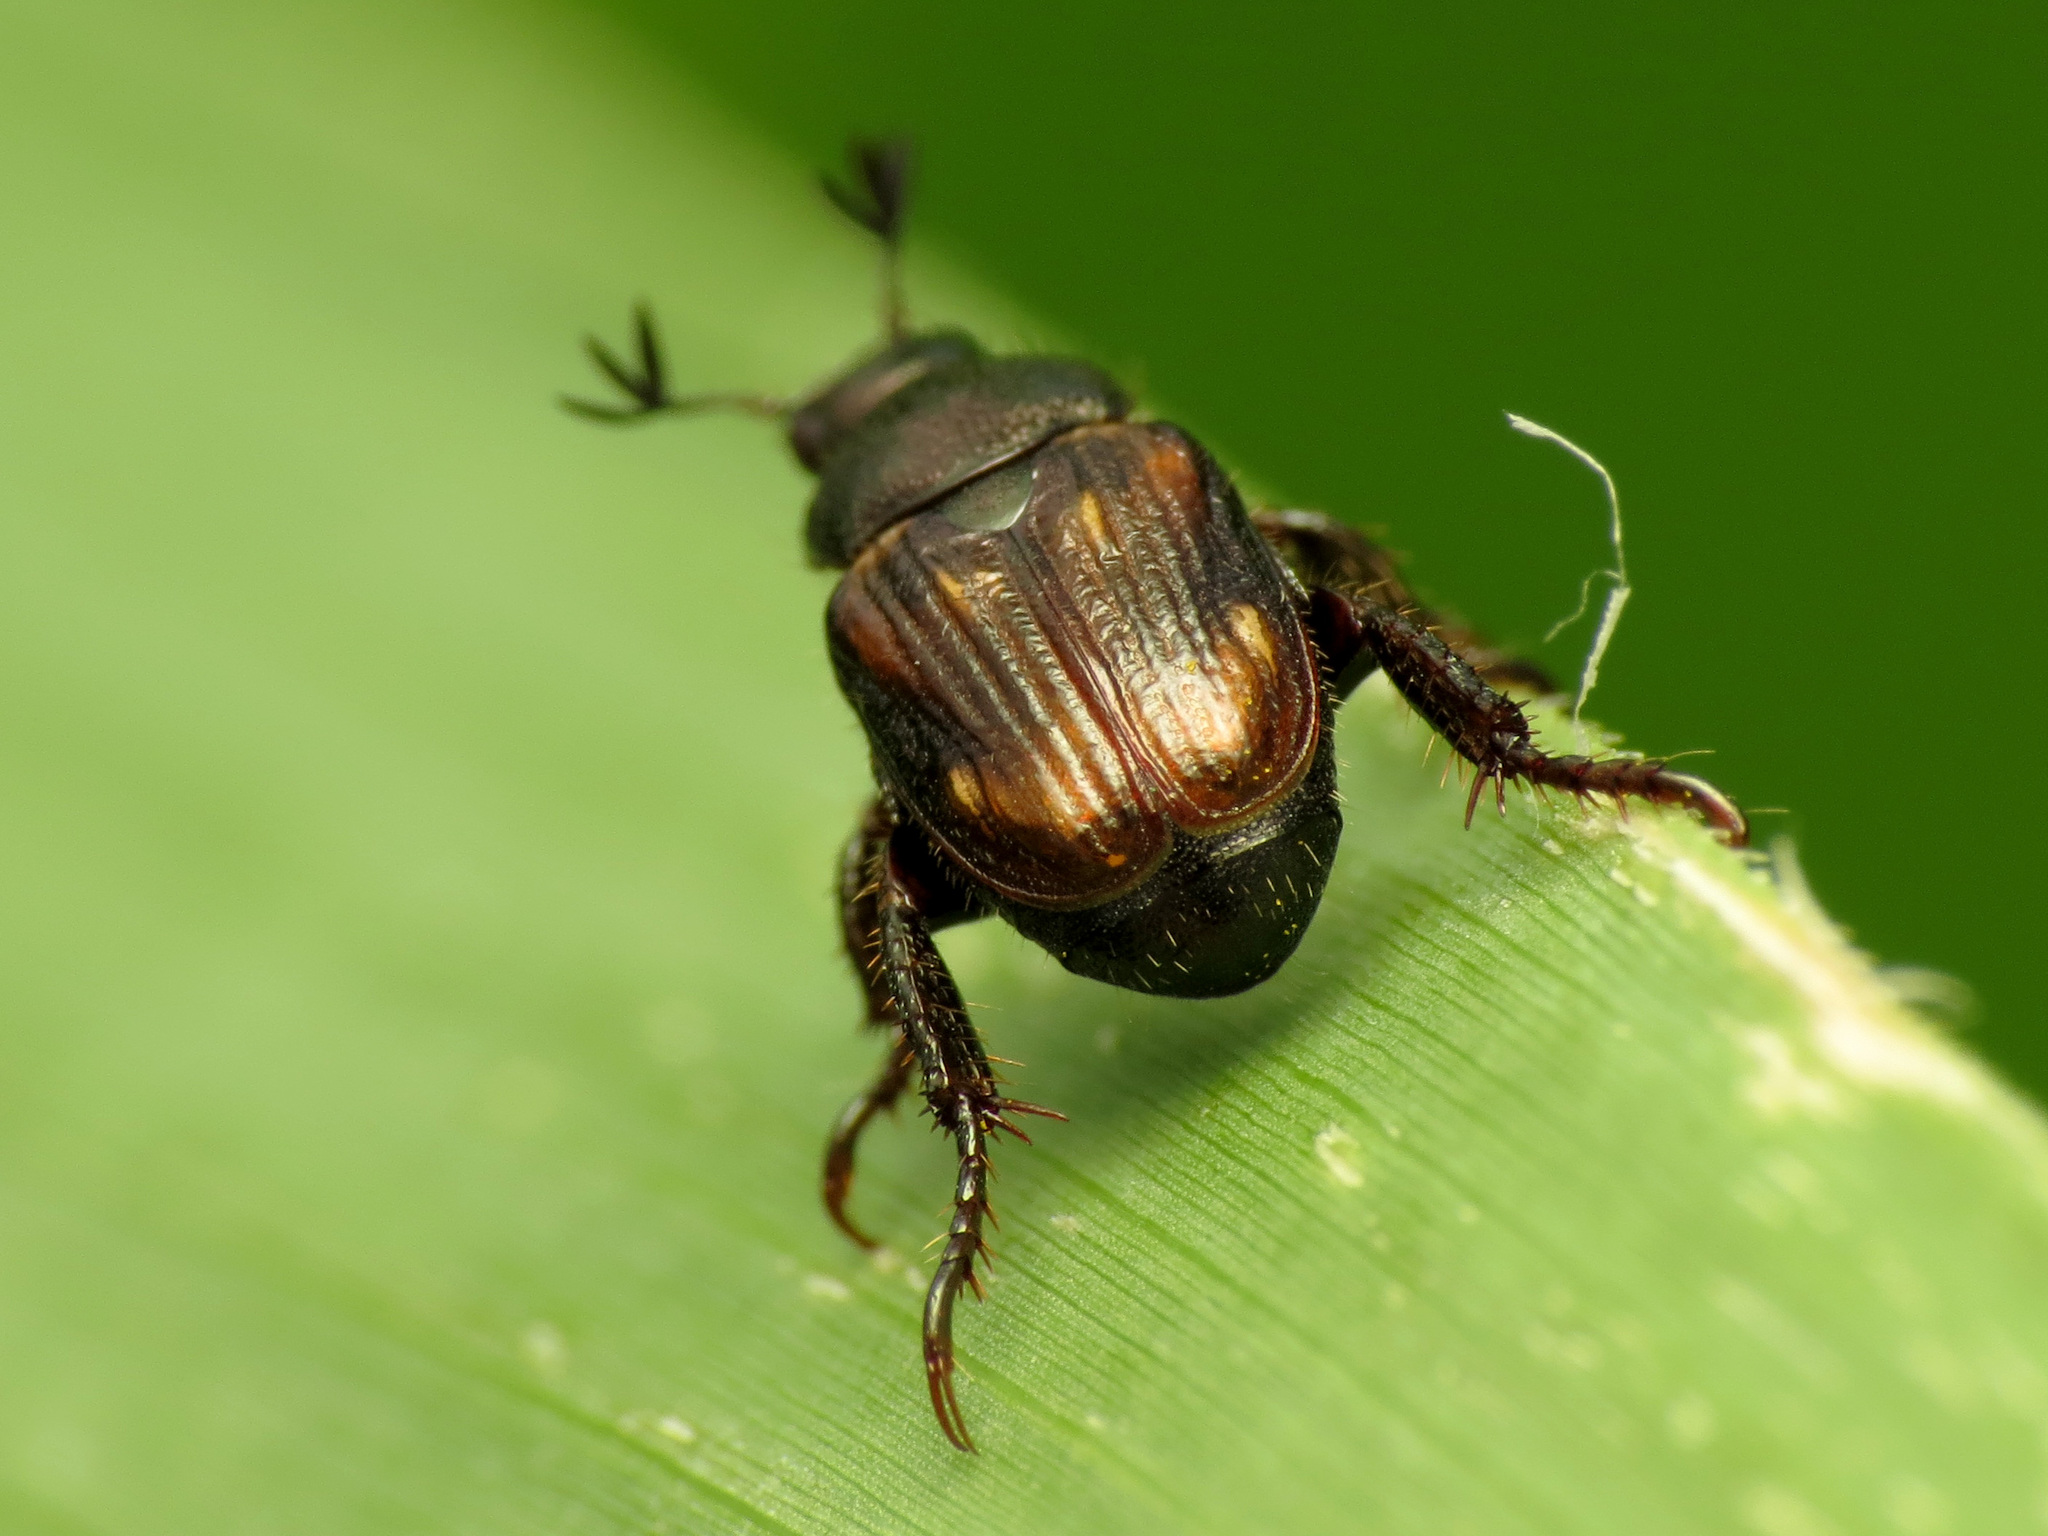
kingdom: Animalia
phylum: Arthropoda
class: Insecta
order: Coleoptera
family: Scarabaeidae
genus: Strigoderma
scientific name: Strigoderma pygmaea
